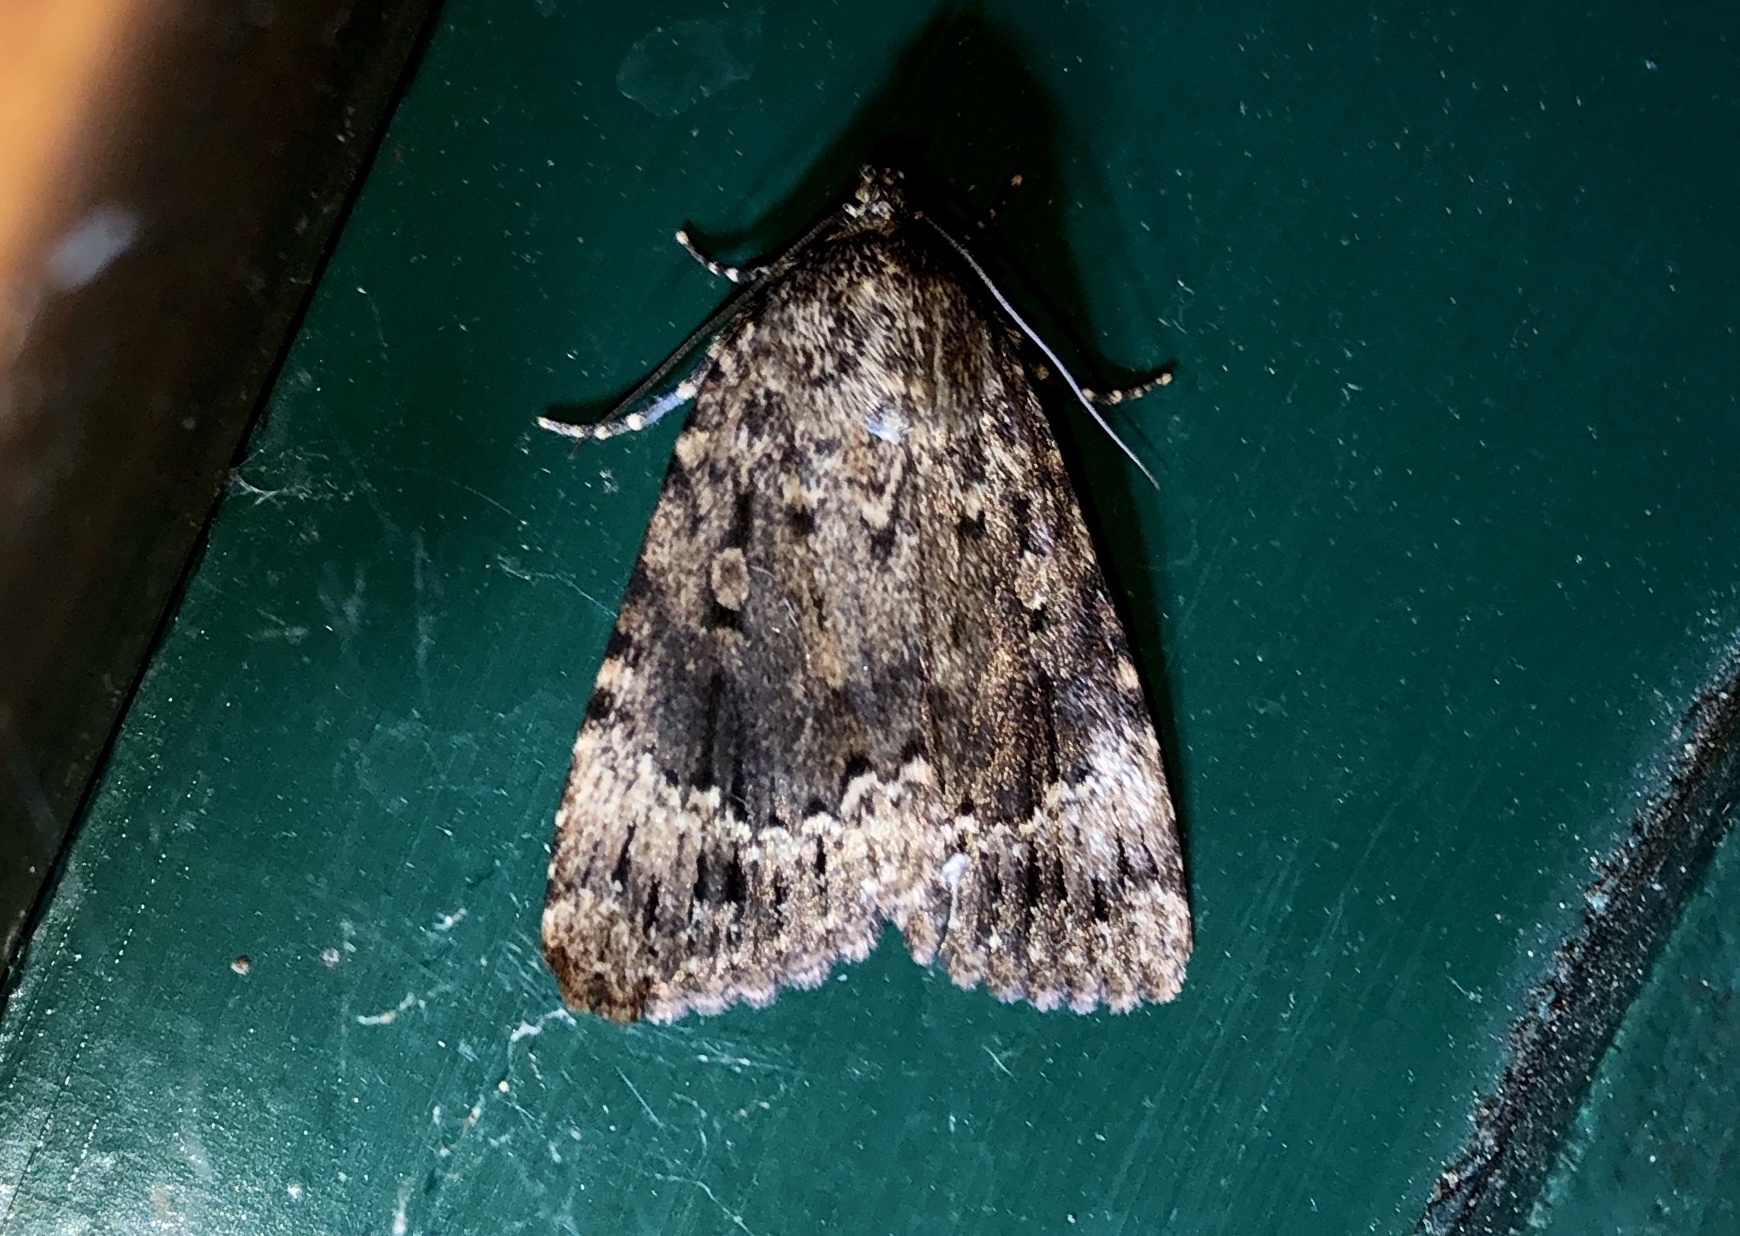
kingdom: Animalia
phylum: Arthropoda
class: Insecta
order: Lepidoptera
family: Noctuidae
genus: Amphipyra
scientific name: Amphipyra pyramidoides
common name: American copper underwing
